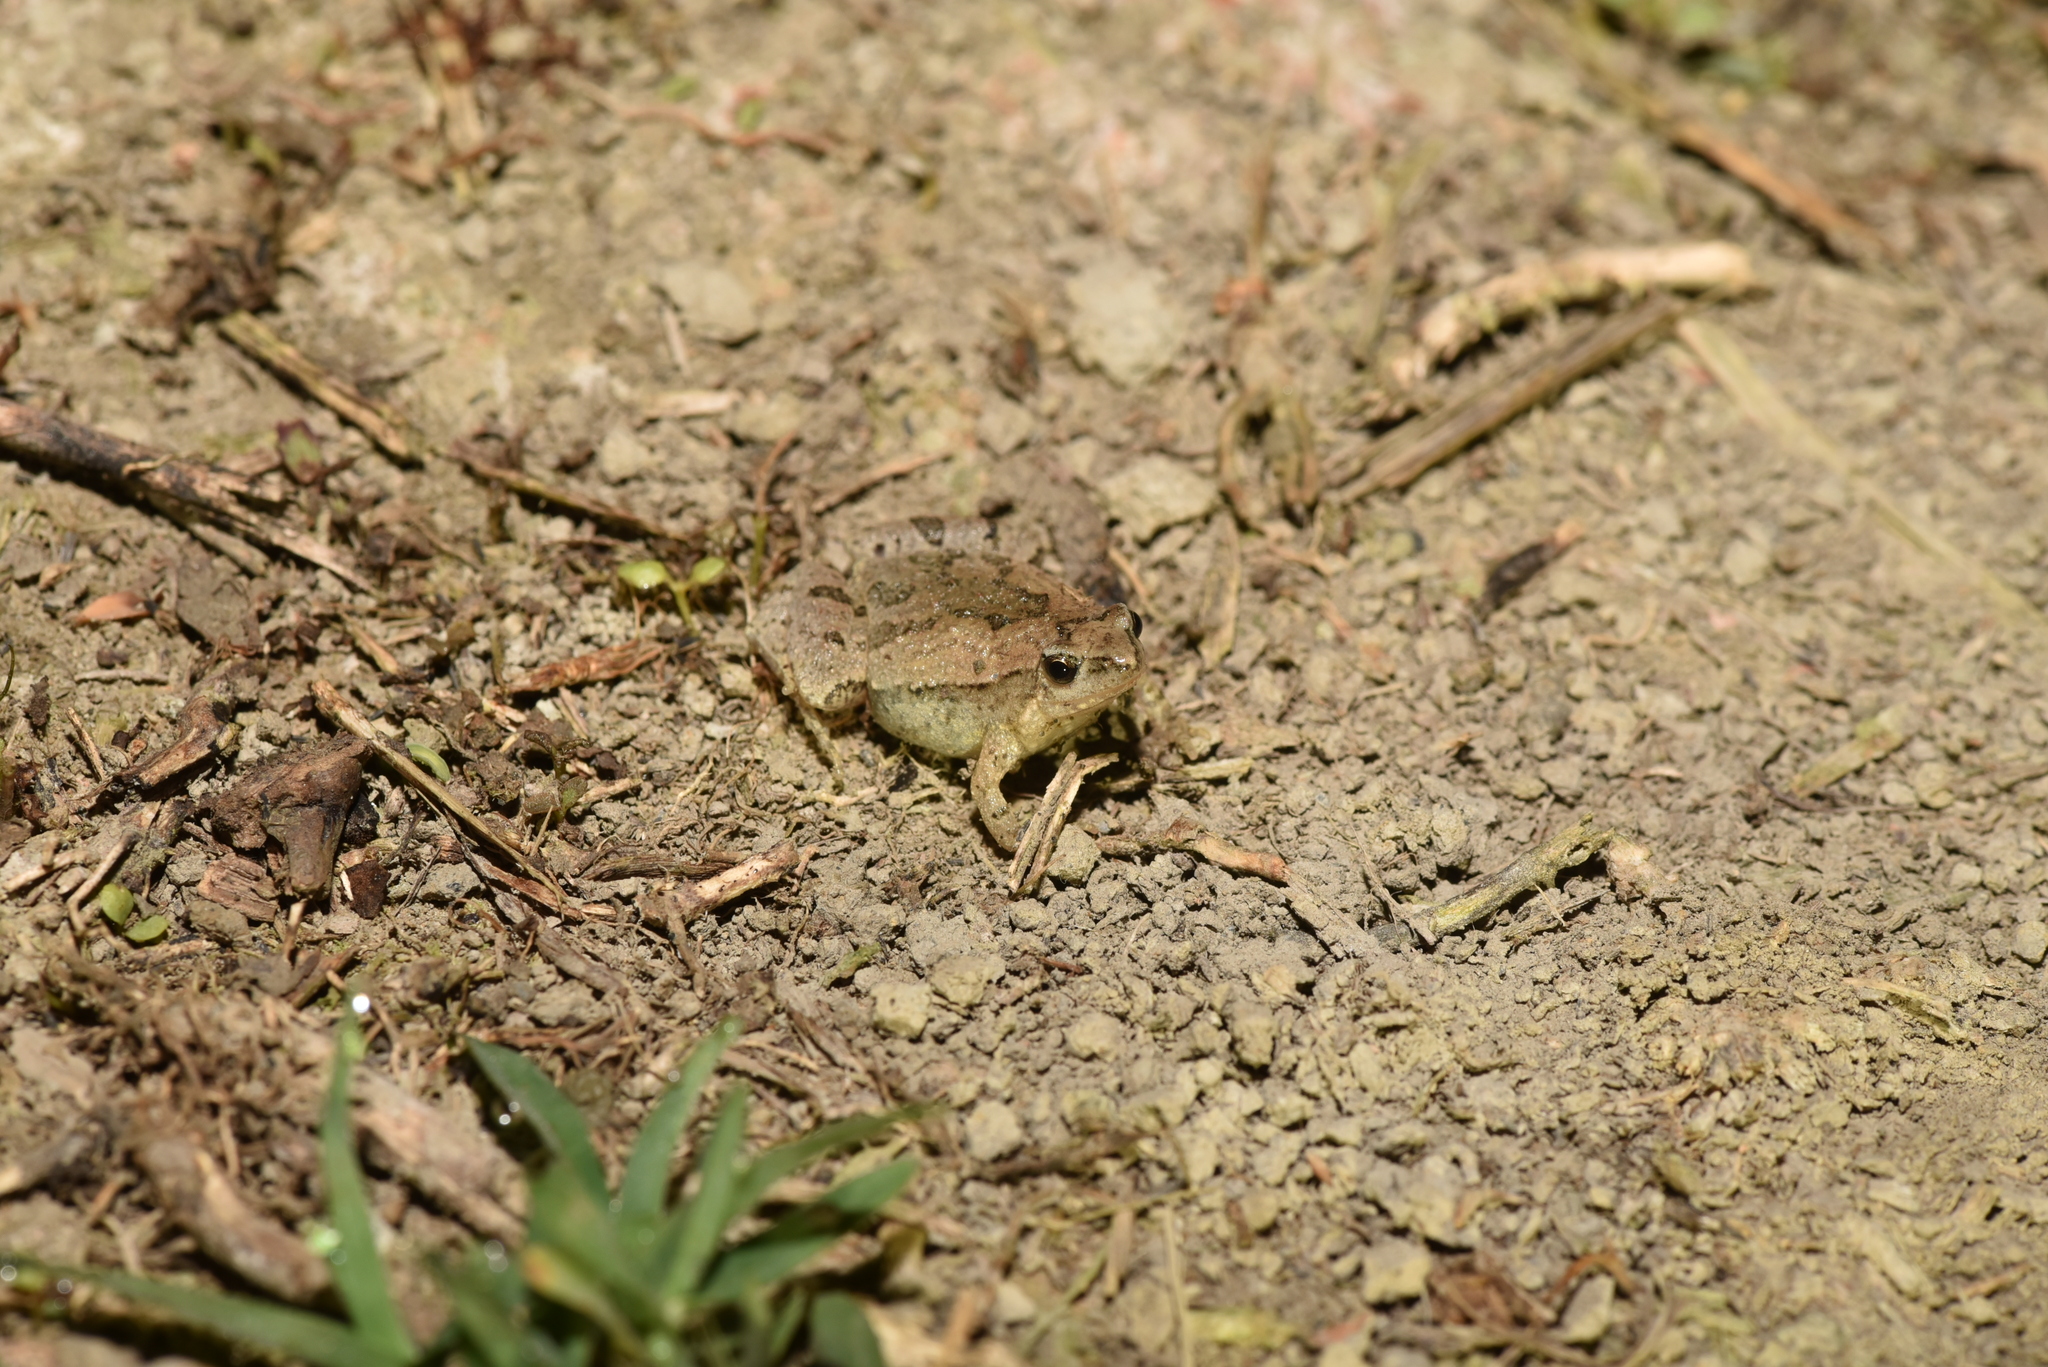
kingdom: Animalia
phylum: Chordata
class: Amphibia
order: Anura
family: Microhylidae
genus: Microhyla
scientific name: Microhyla fissipes
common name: Ornate narrow-mouthed frog
